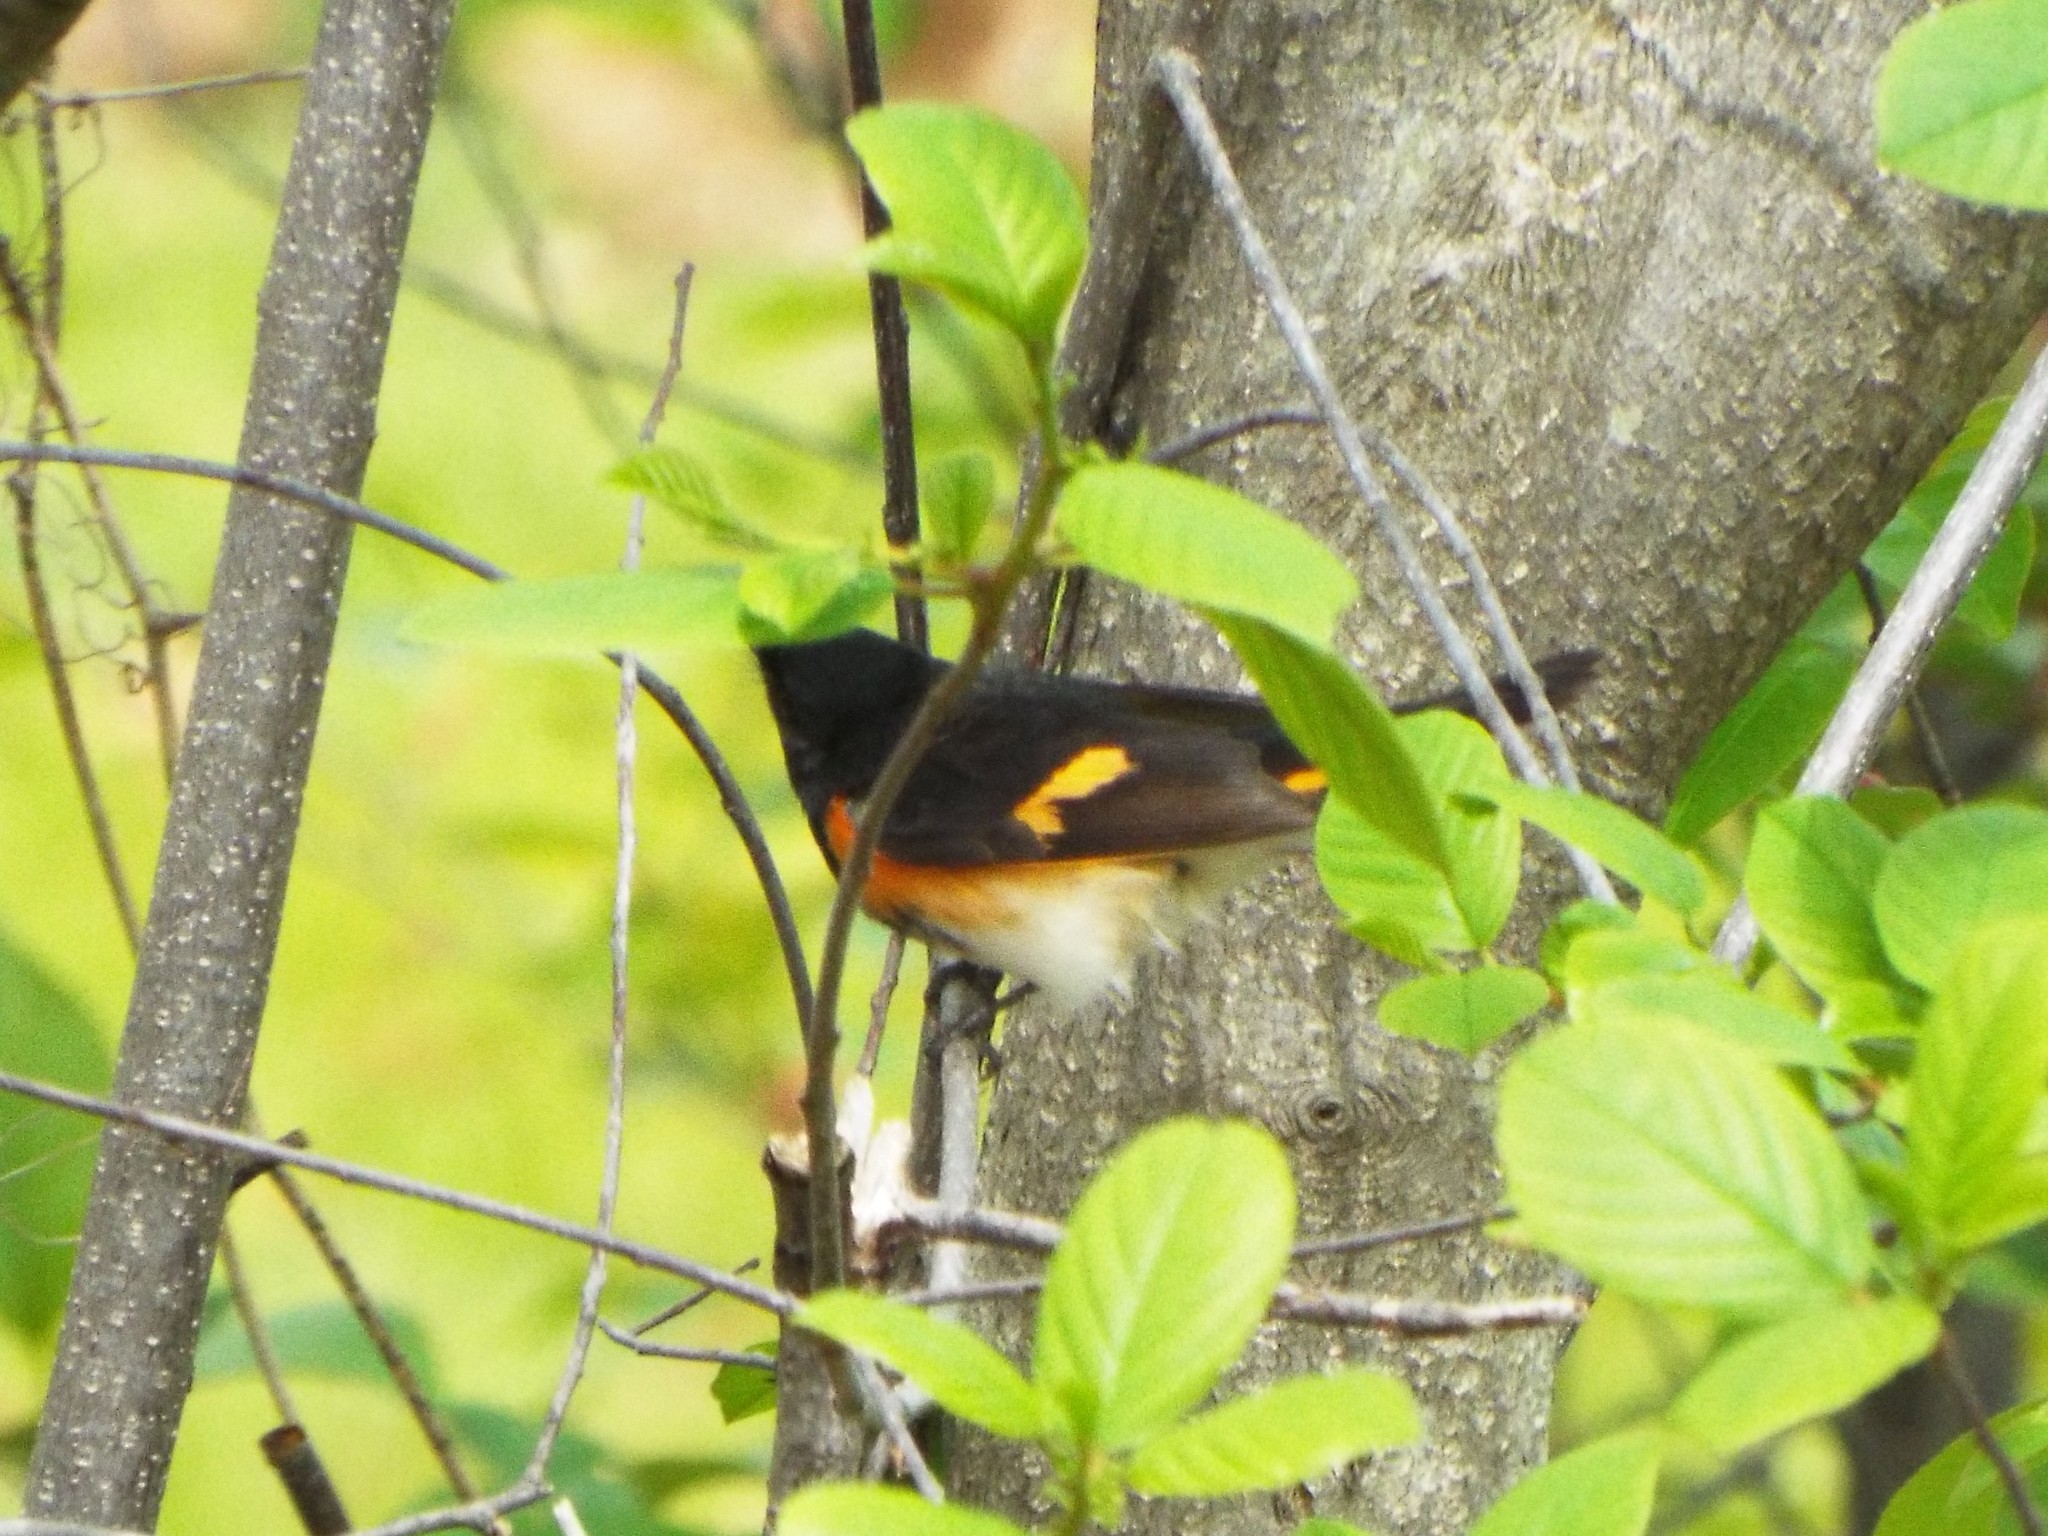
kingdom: Animalia
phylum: Chordata
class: Aves
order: Passeriformes
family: Parulidae
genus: Setophaga
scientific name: Setophaga ruticilla
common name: American redstart
